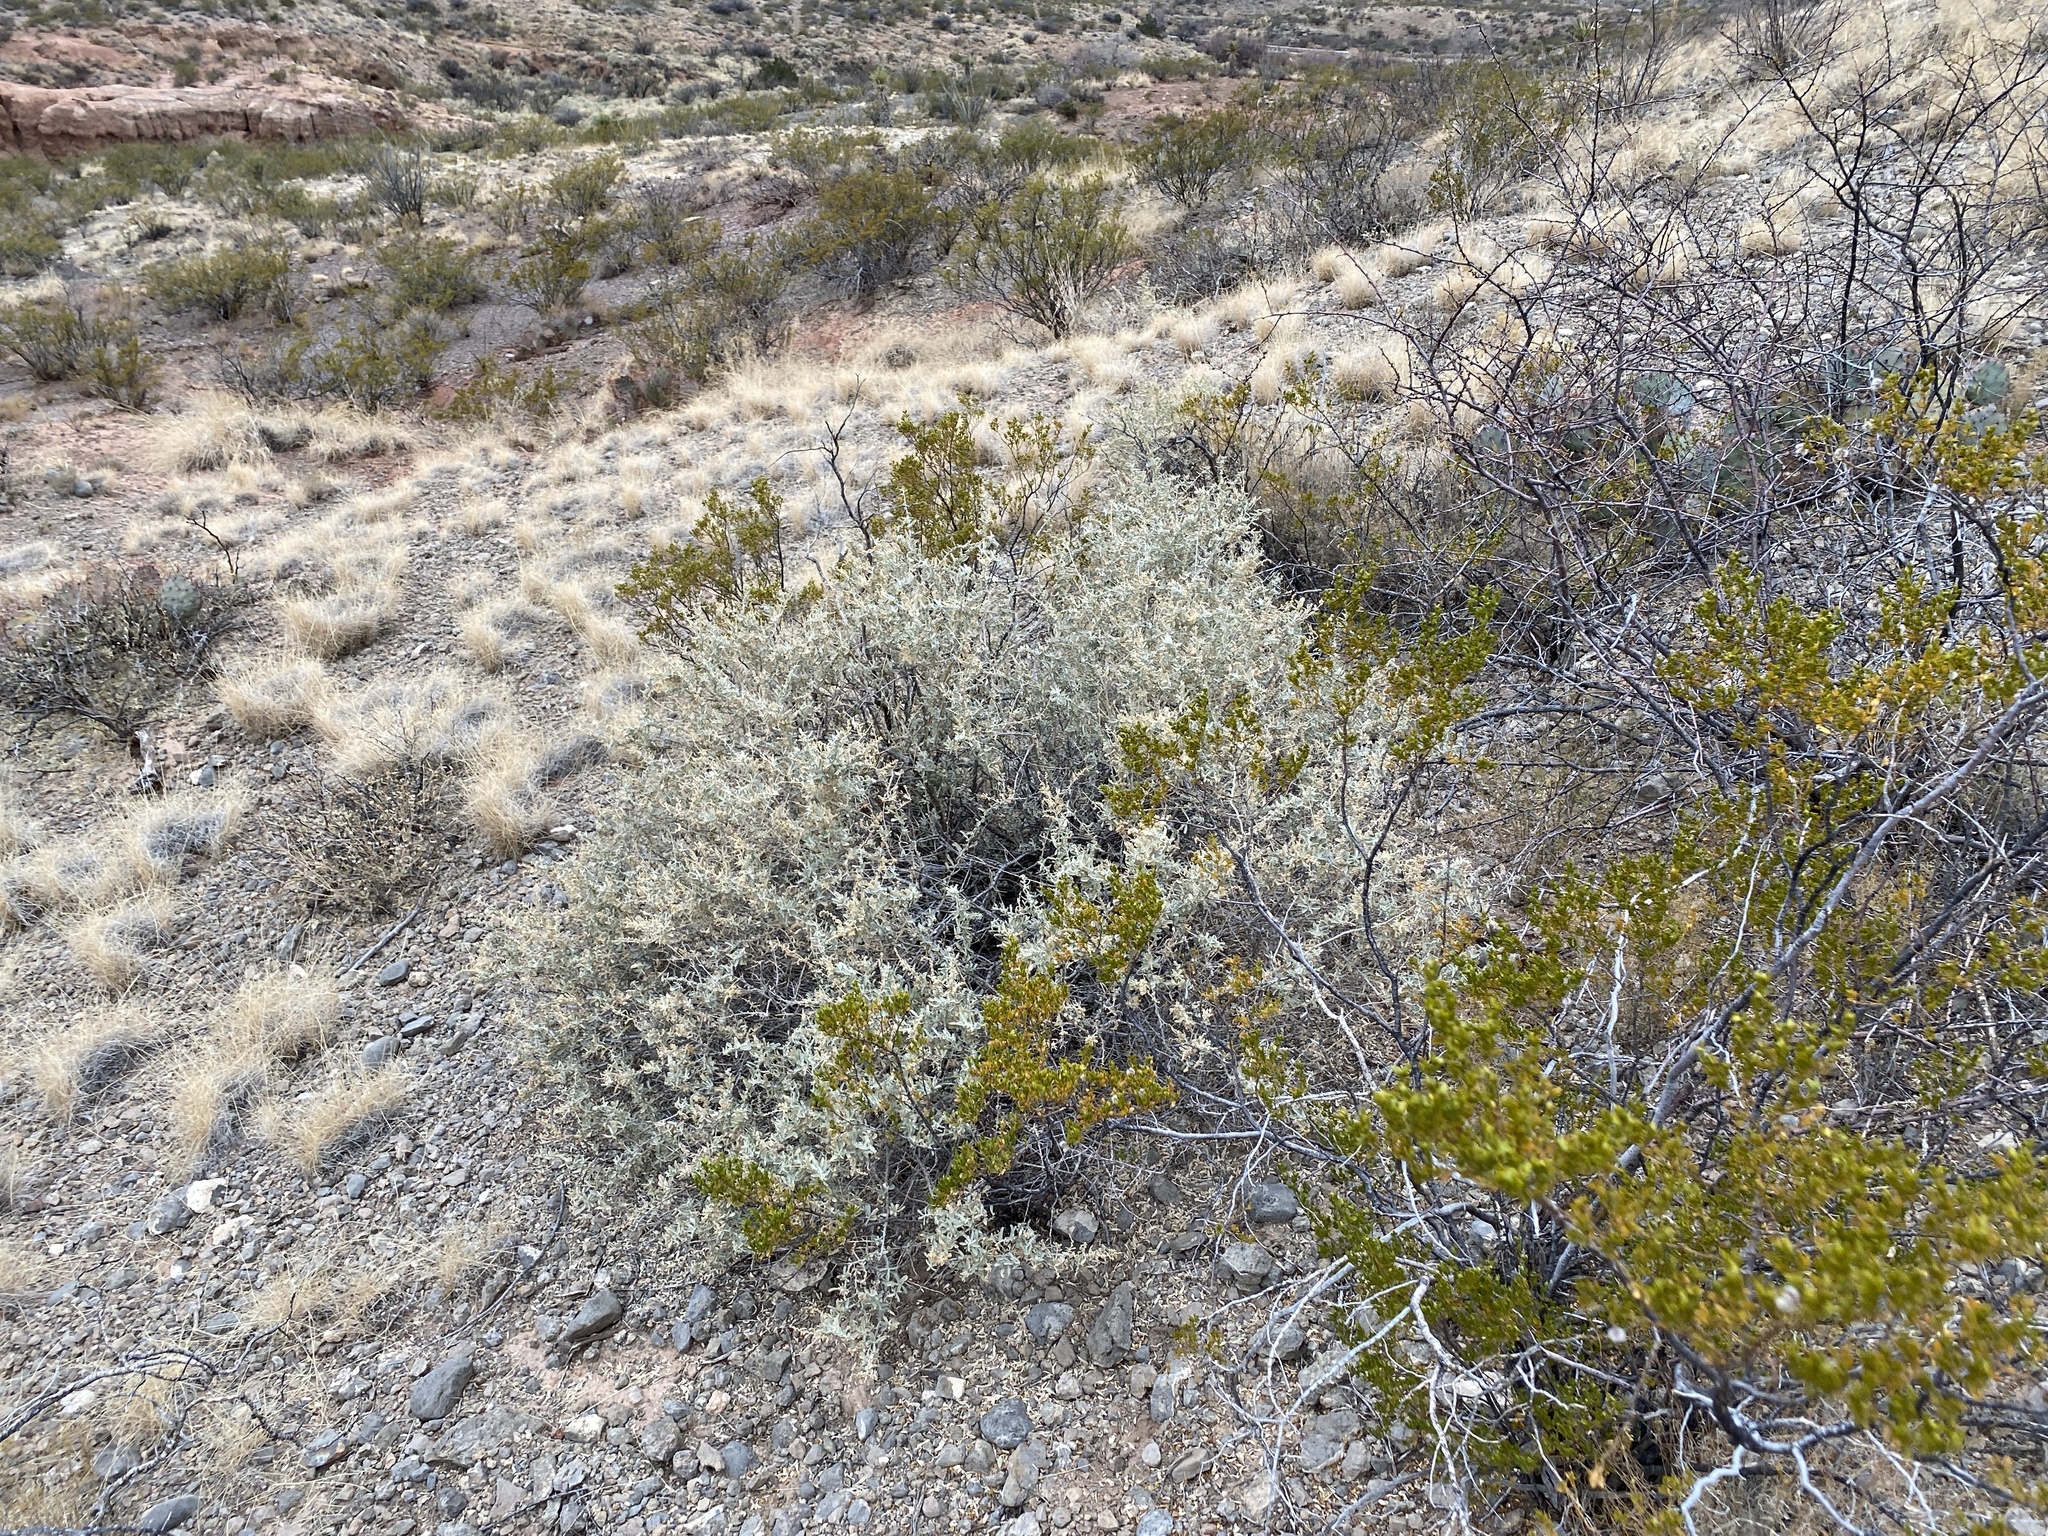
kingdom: Plantae
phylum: Tracheophyta
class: Magnoliopsida
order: Caryophyllales
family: Amaranthaceae
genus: Atriplex
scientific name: Atriplex canescens
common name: Four-wing saltbush
